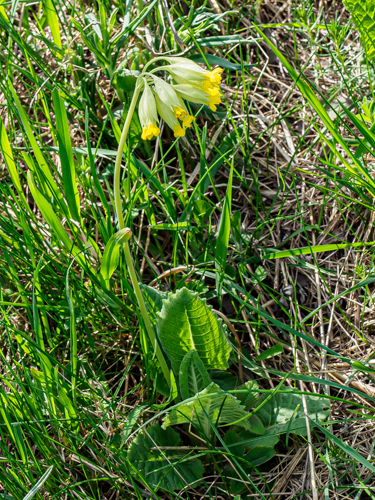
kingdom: Plantae
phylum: Tracheophyta
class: Magnoliopsida
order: Ericales
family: Primulaceae
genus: Primula
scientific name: Primula veris
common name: Cowslip
